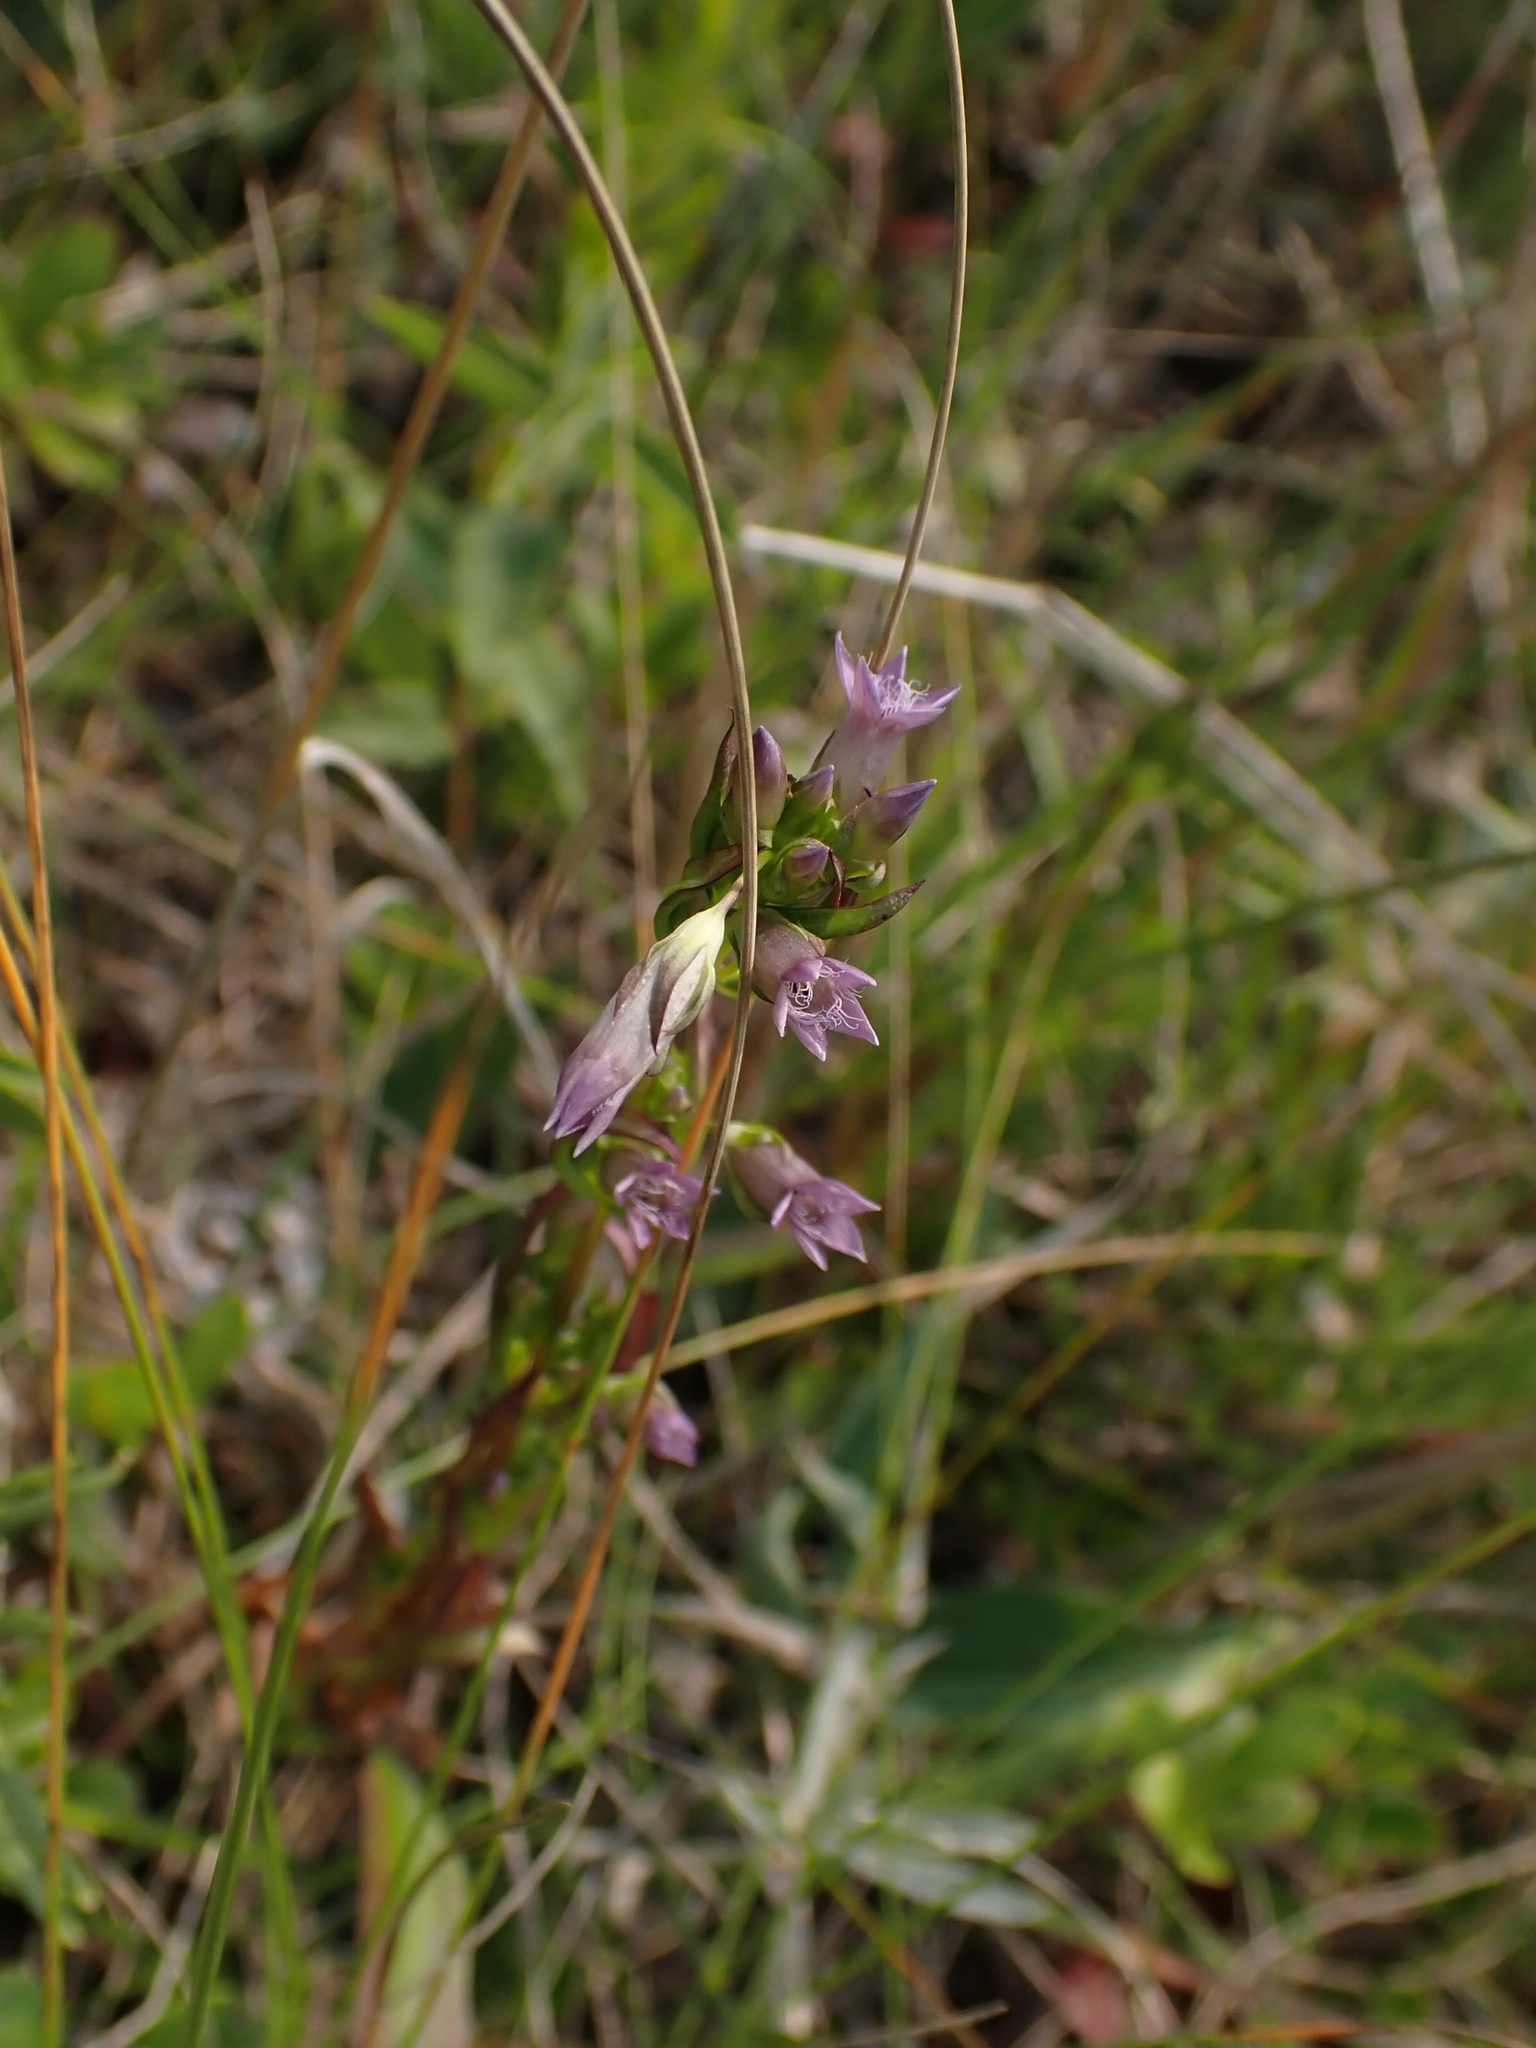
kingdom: Plantae
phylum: Tracheophyta
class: Magnoliopsida
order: Gentianales
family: Gentianaceae
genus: Gentianella
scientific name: Gentianella amarella
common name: Autumn gentian
